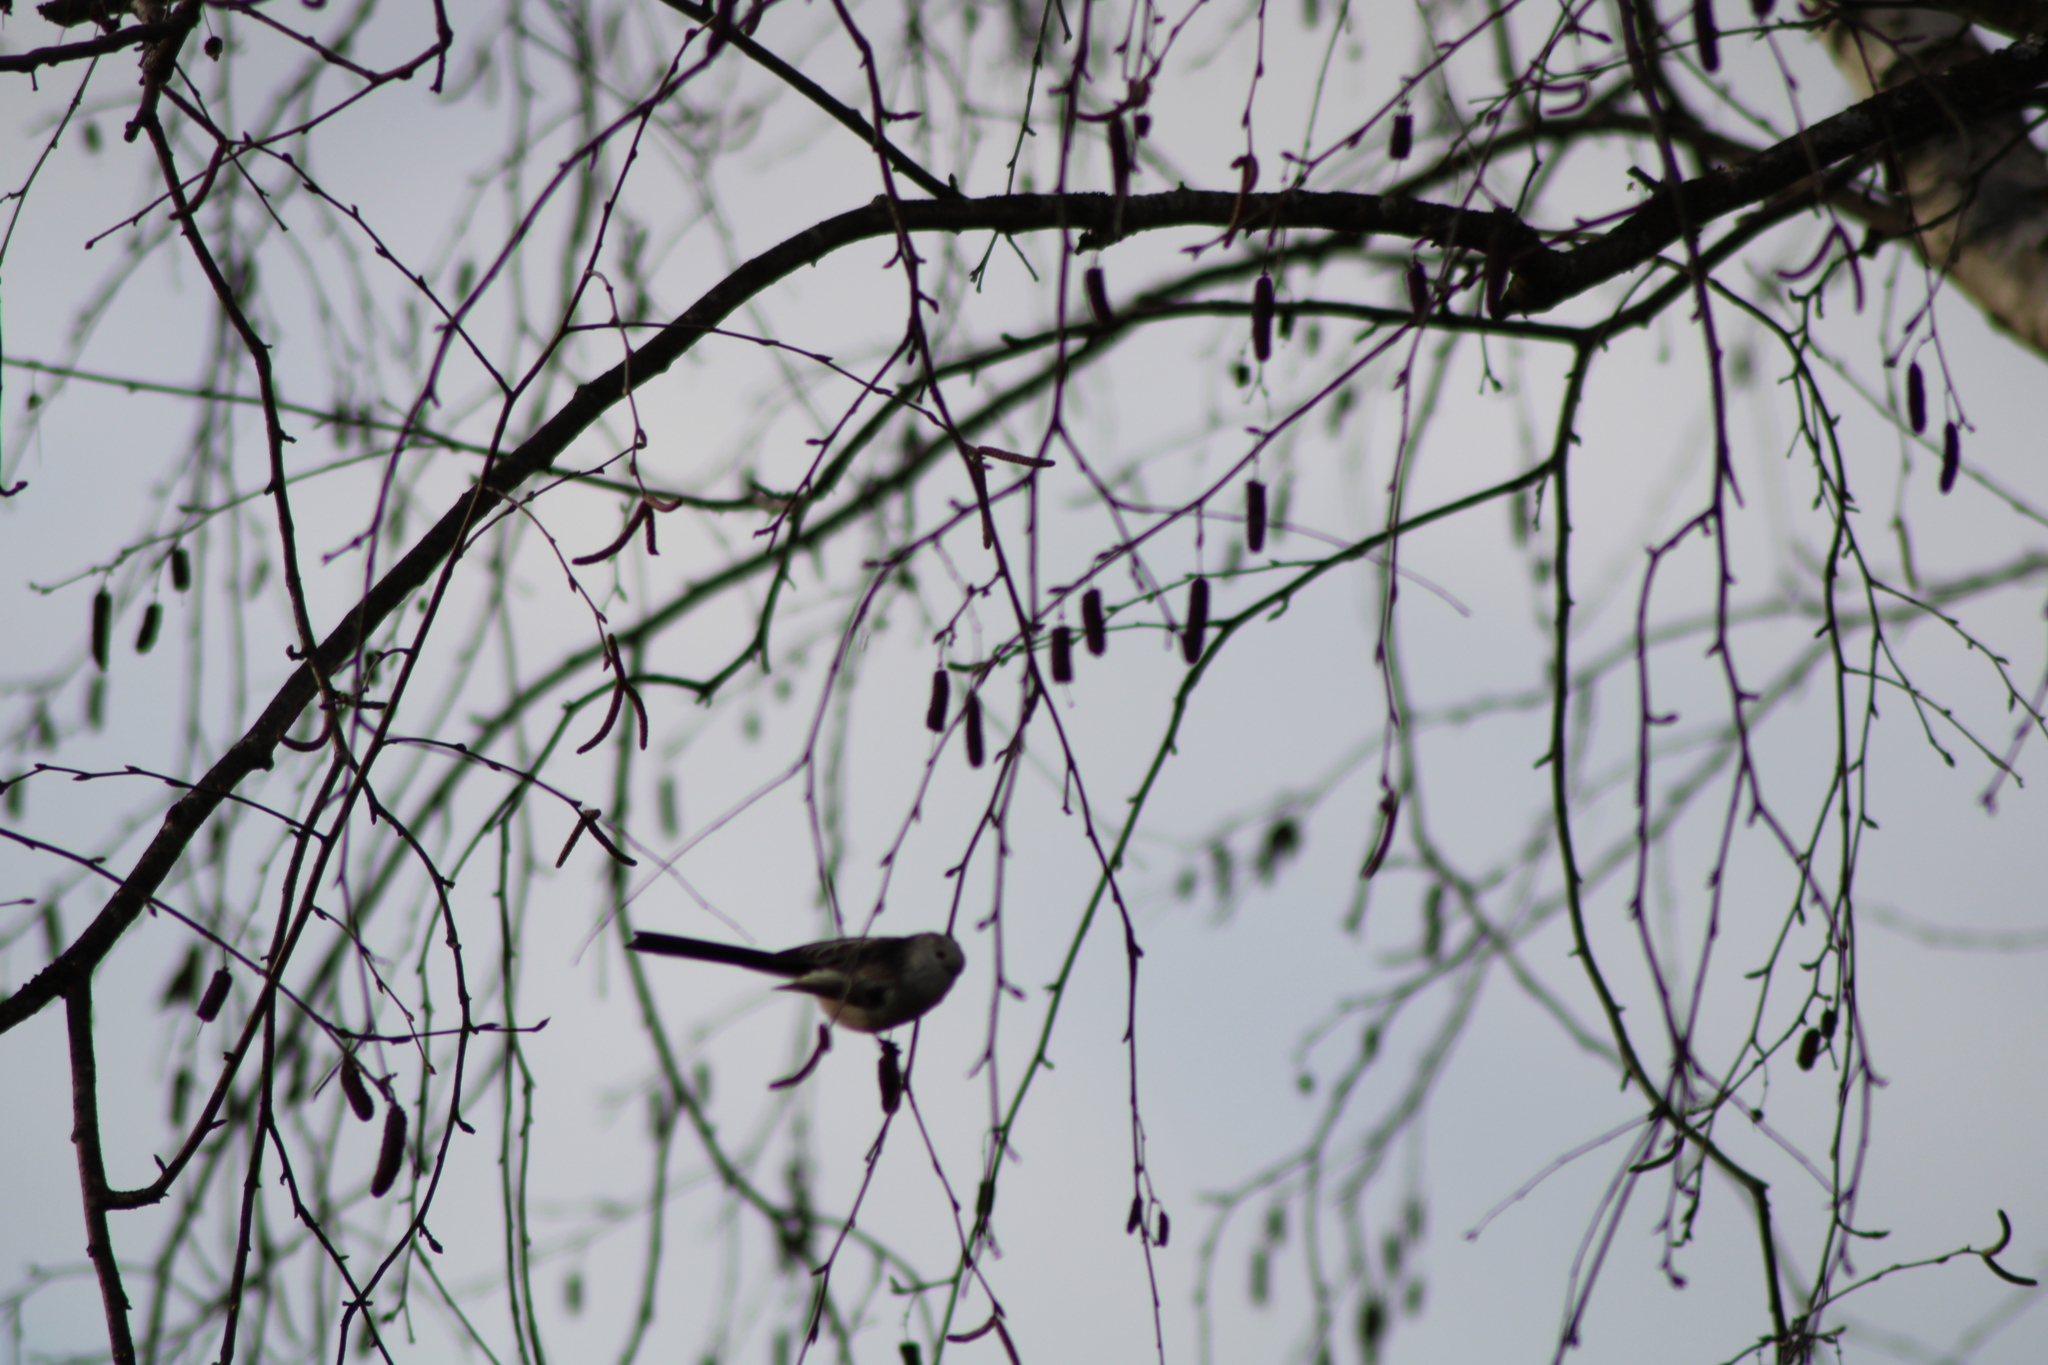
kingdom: Animalia
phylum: Chordata
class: Aves
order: Passeriformes
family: Aegithalidae
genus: Aegithalos
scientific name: Aegithalos caudatus
